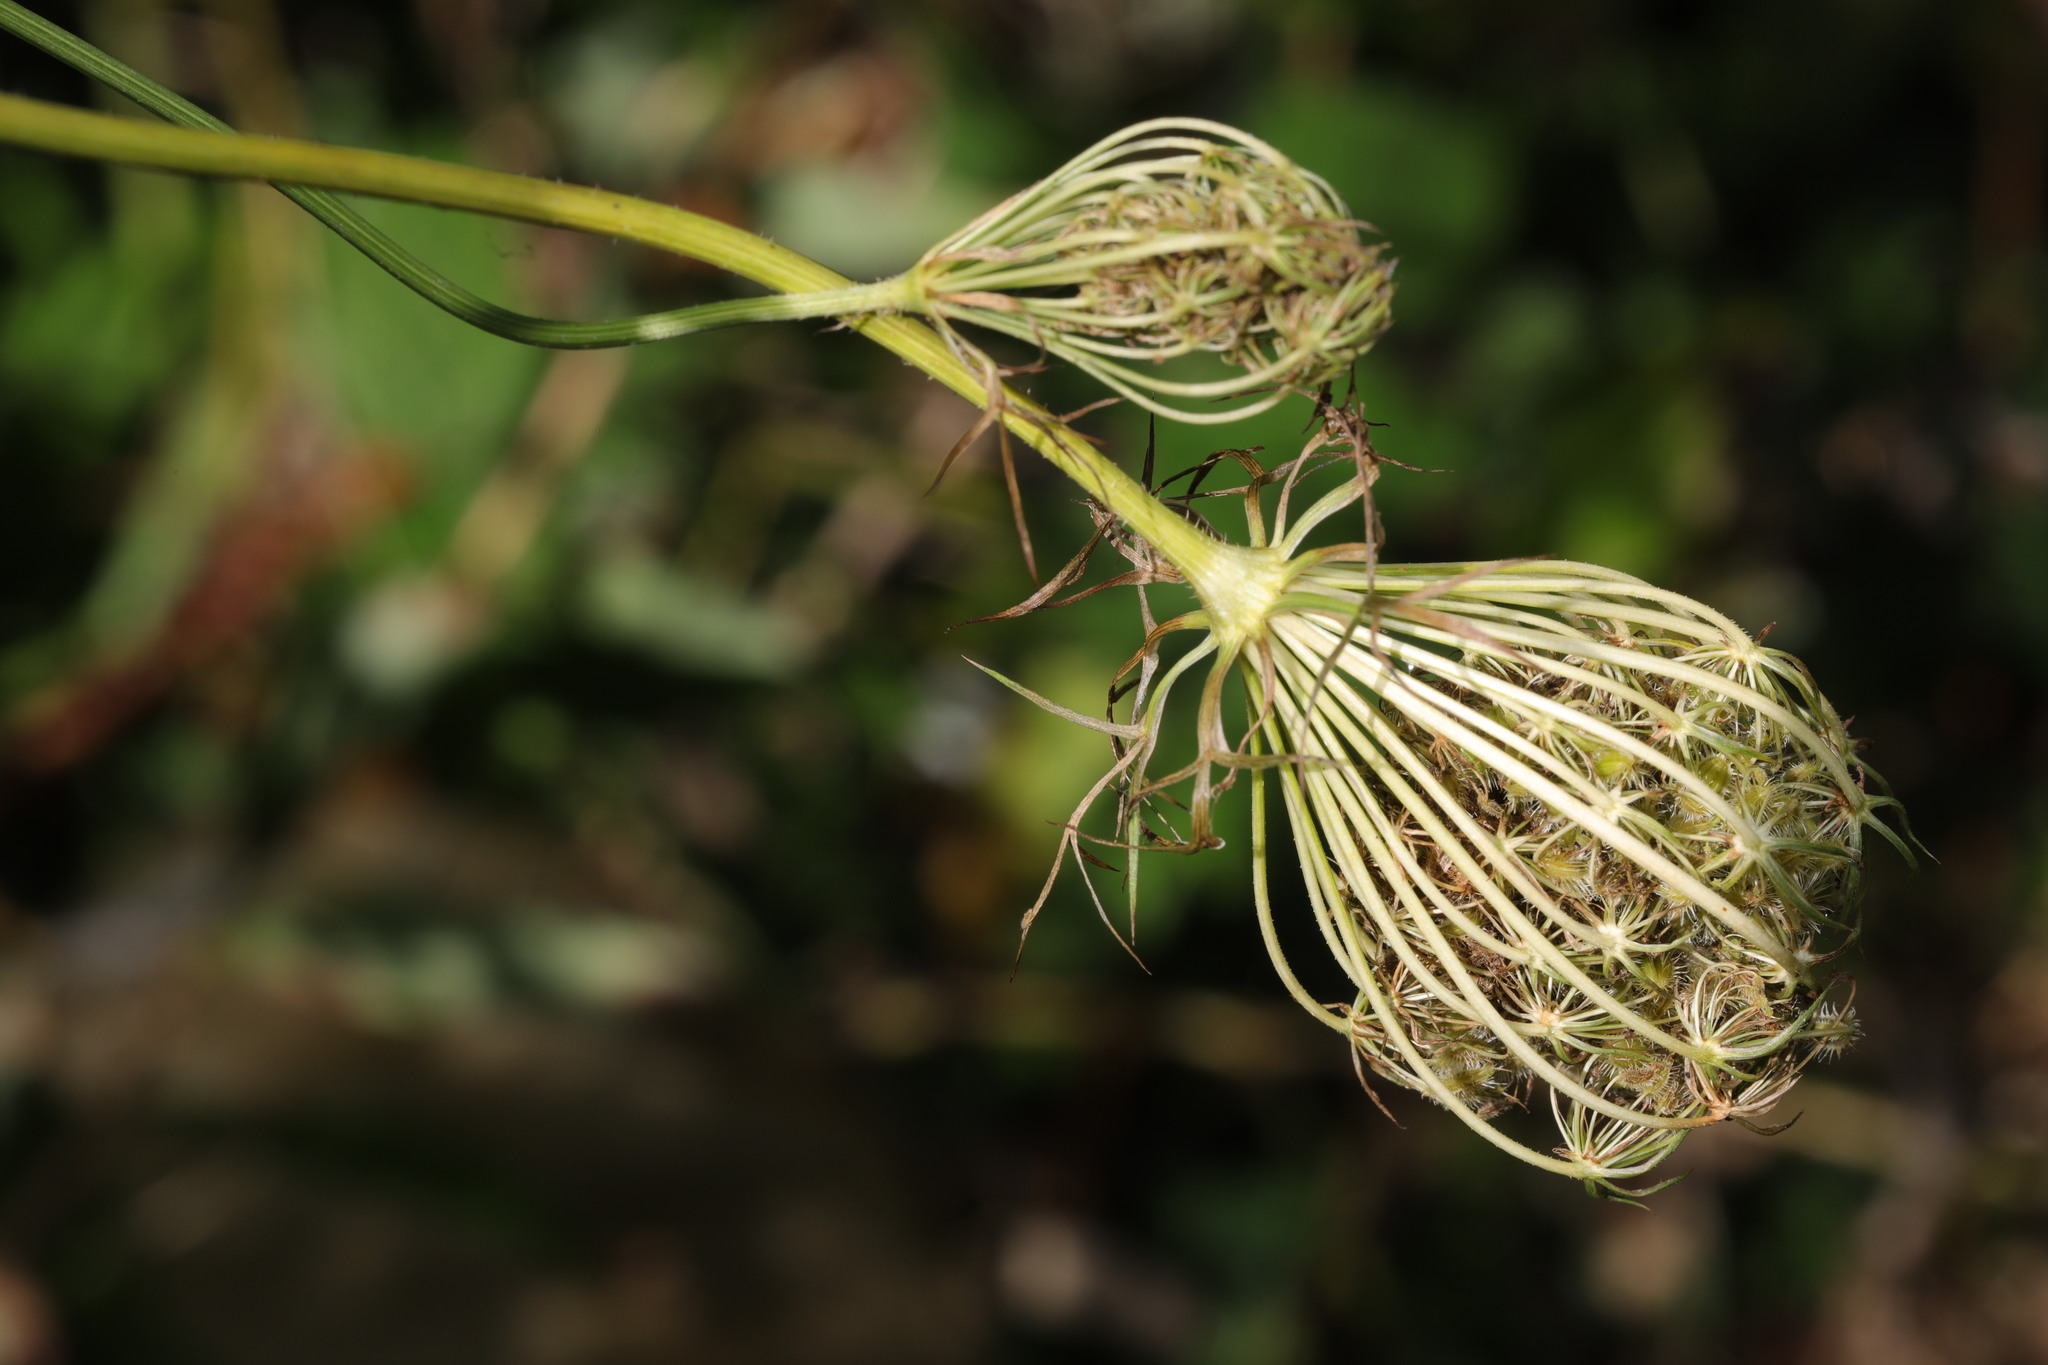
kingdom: Plantae
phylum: Tracheophyta
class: Magnoliopsida
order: Apiales
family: Apiaceae
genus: Daucus
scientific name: Daucus carota
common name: Wild carrot
